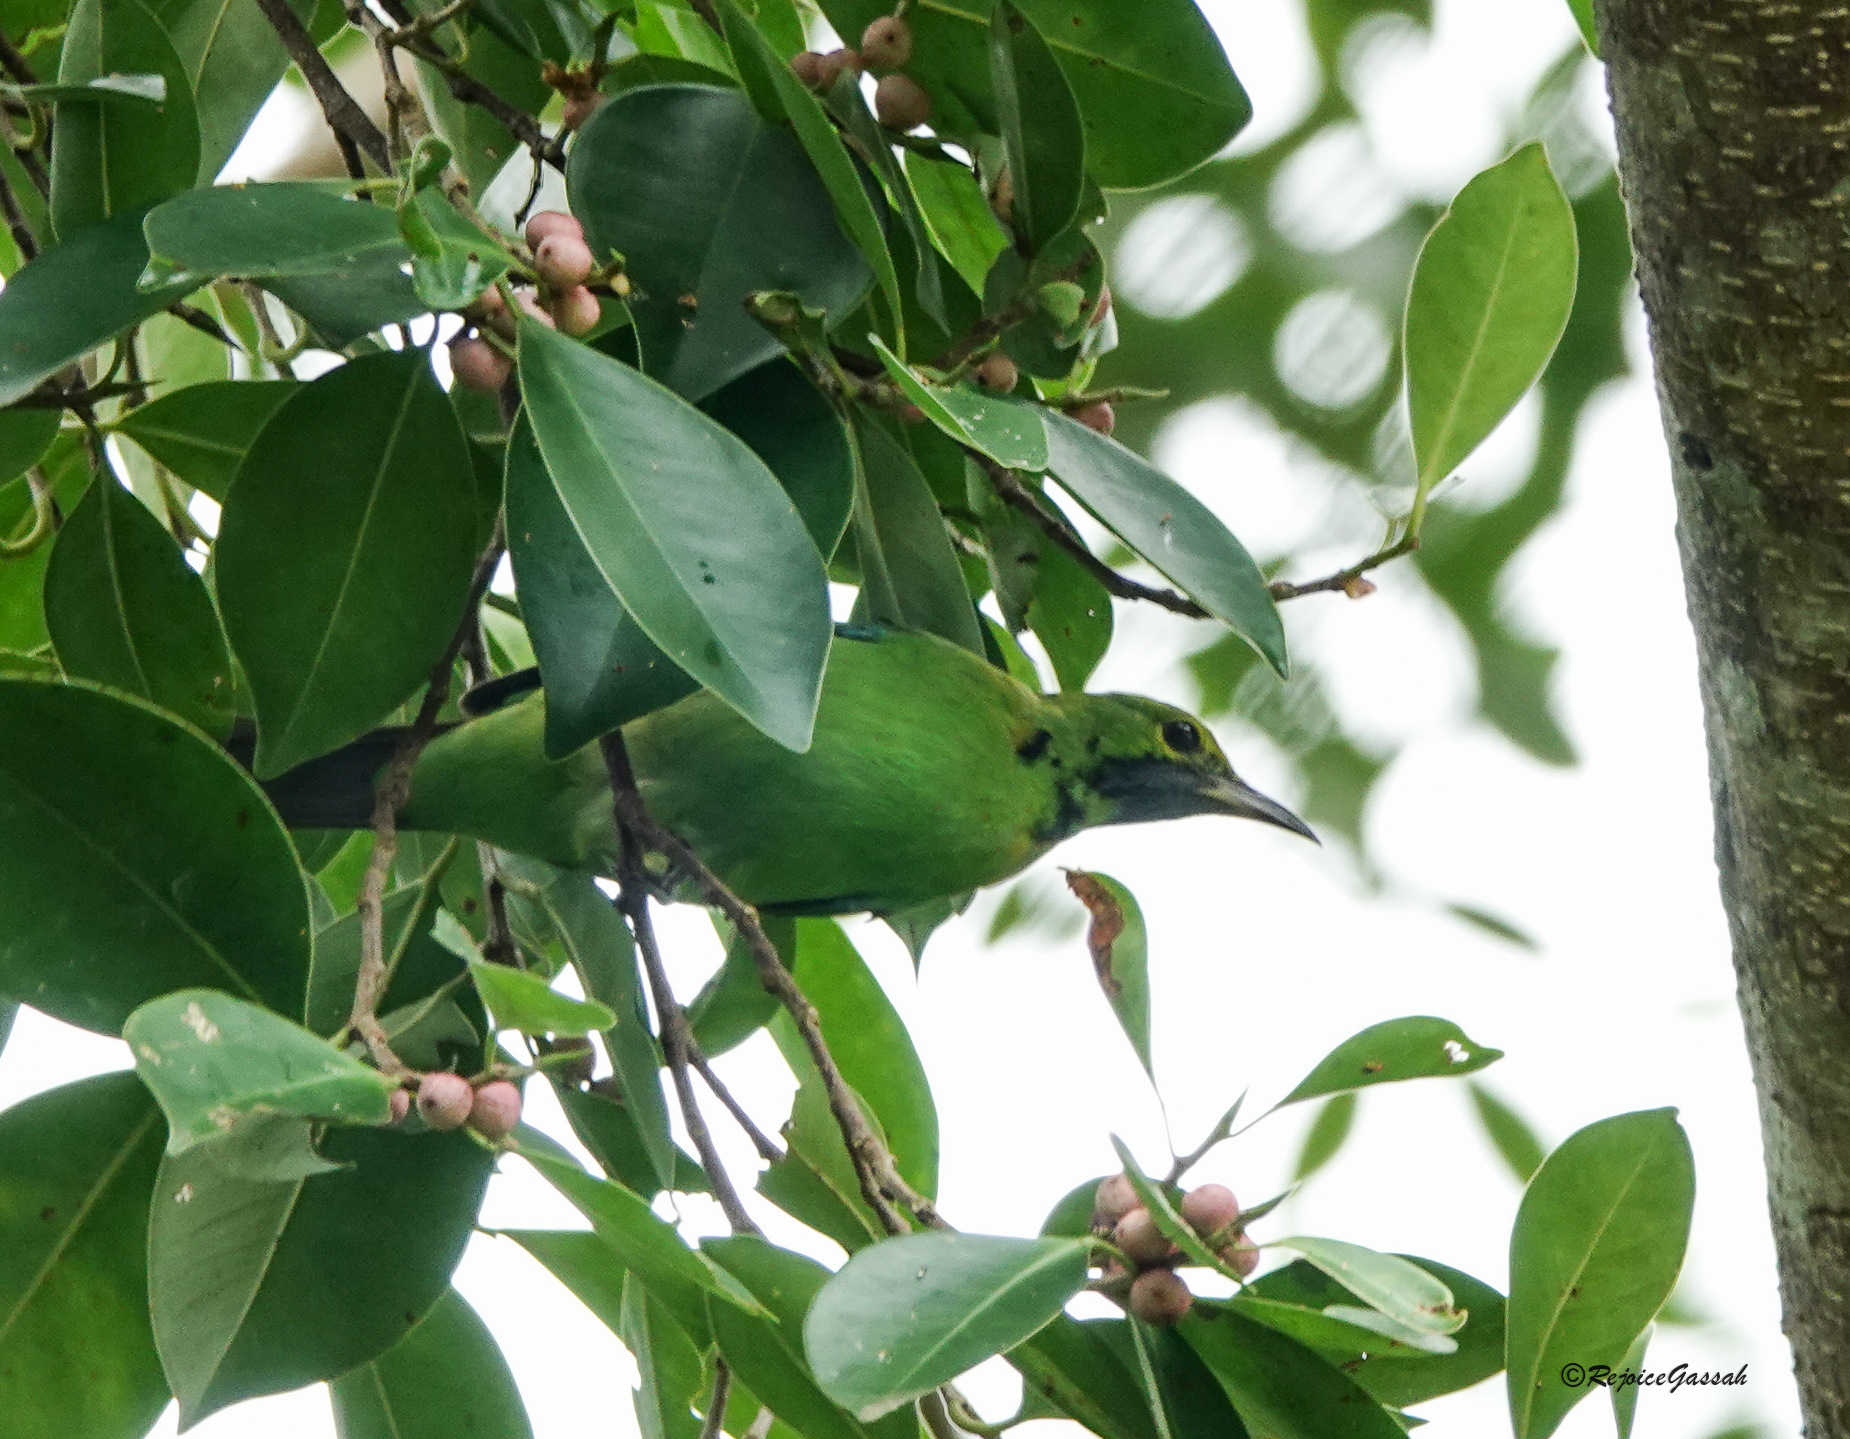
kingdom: Animalia
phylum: Chordata
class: Aves
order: Passeriformes
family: Chloropseidae
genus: Chloropsis
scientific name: Chloropsis aurifrons
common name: Golden-fronted leafbird
